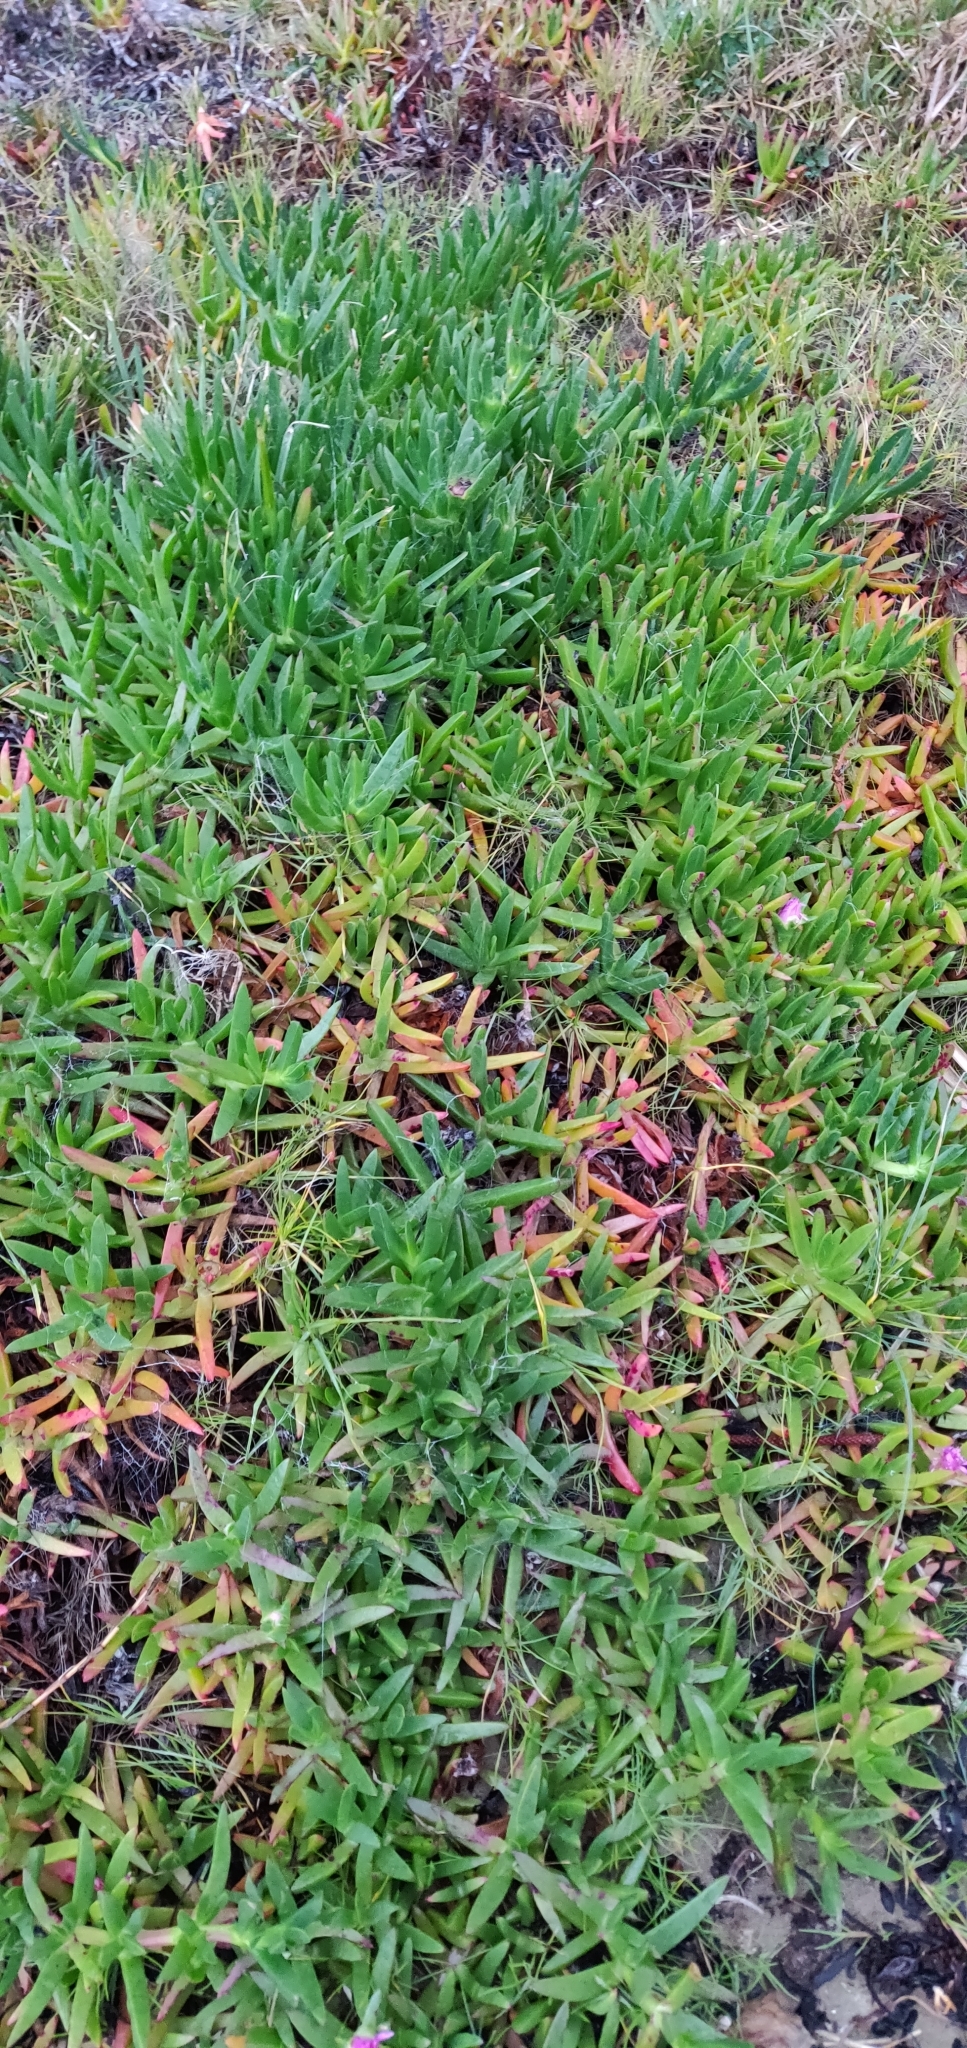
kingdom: Plantae
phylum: Tracheophyta
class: Magnoliopsida
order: Caryophyllales
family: Aizoaceae
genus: Carpobrotus
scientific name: Carpobrotus chilensis
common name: Sea fig
